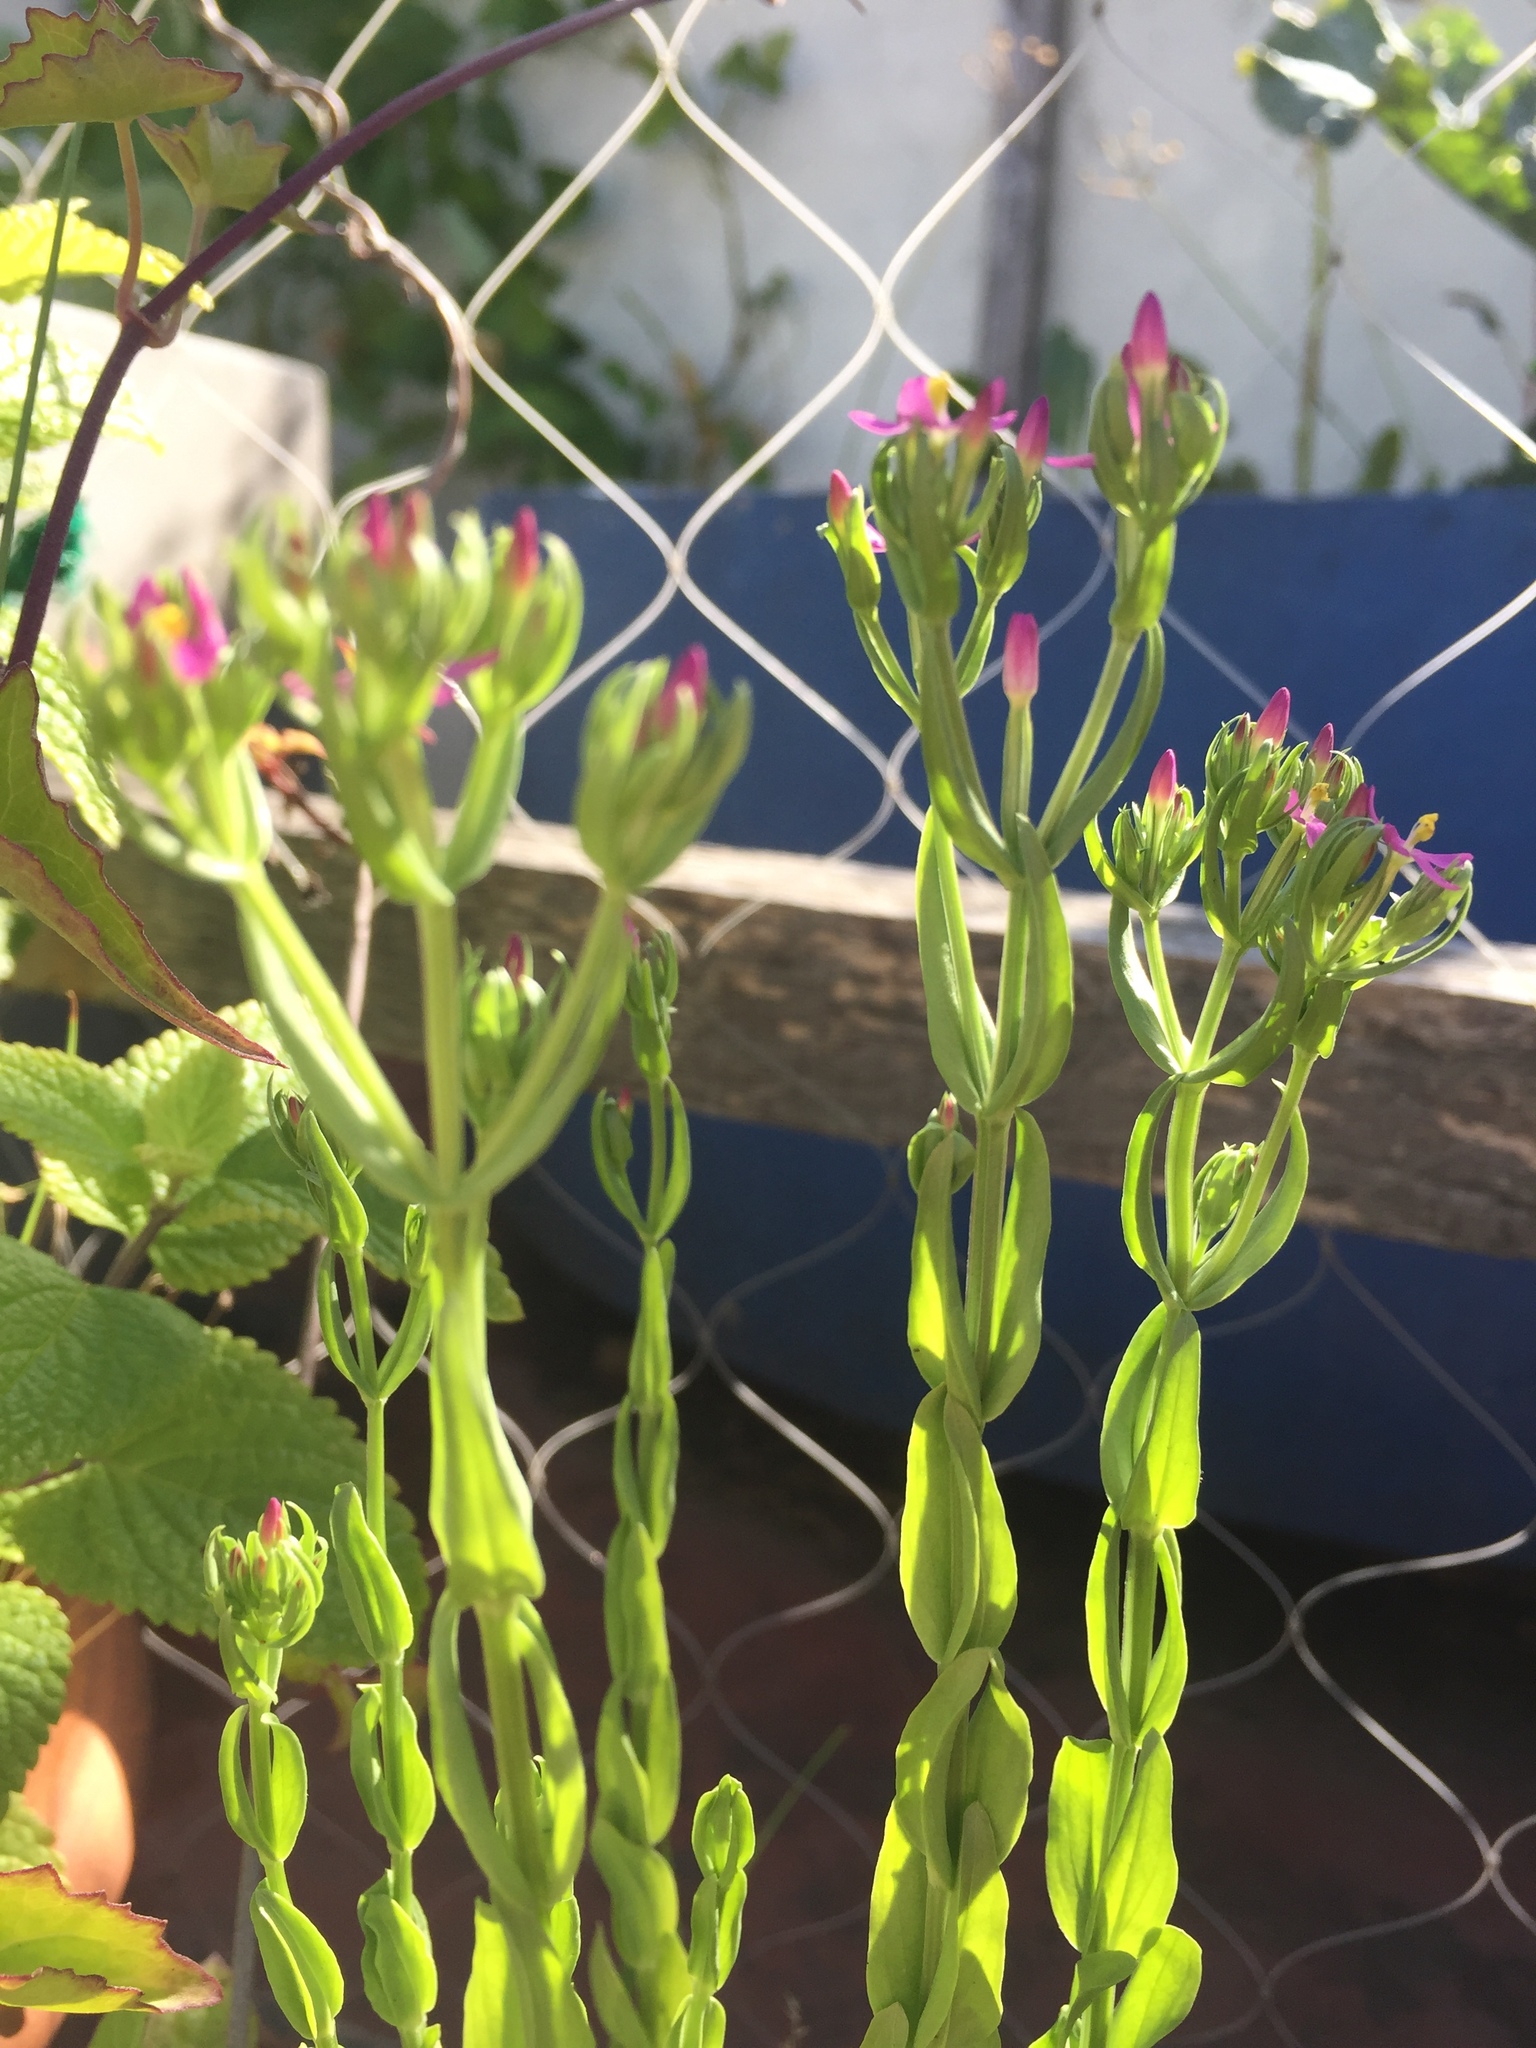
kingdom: Plantae
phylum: Tracheophyta
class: Magnoliopsida
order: Gentianales
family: Gentianaceae
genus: Centaurium
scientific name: Centaurium pulchellum
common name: Lesser centaury
